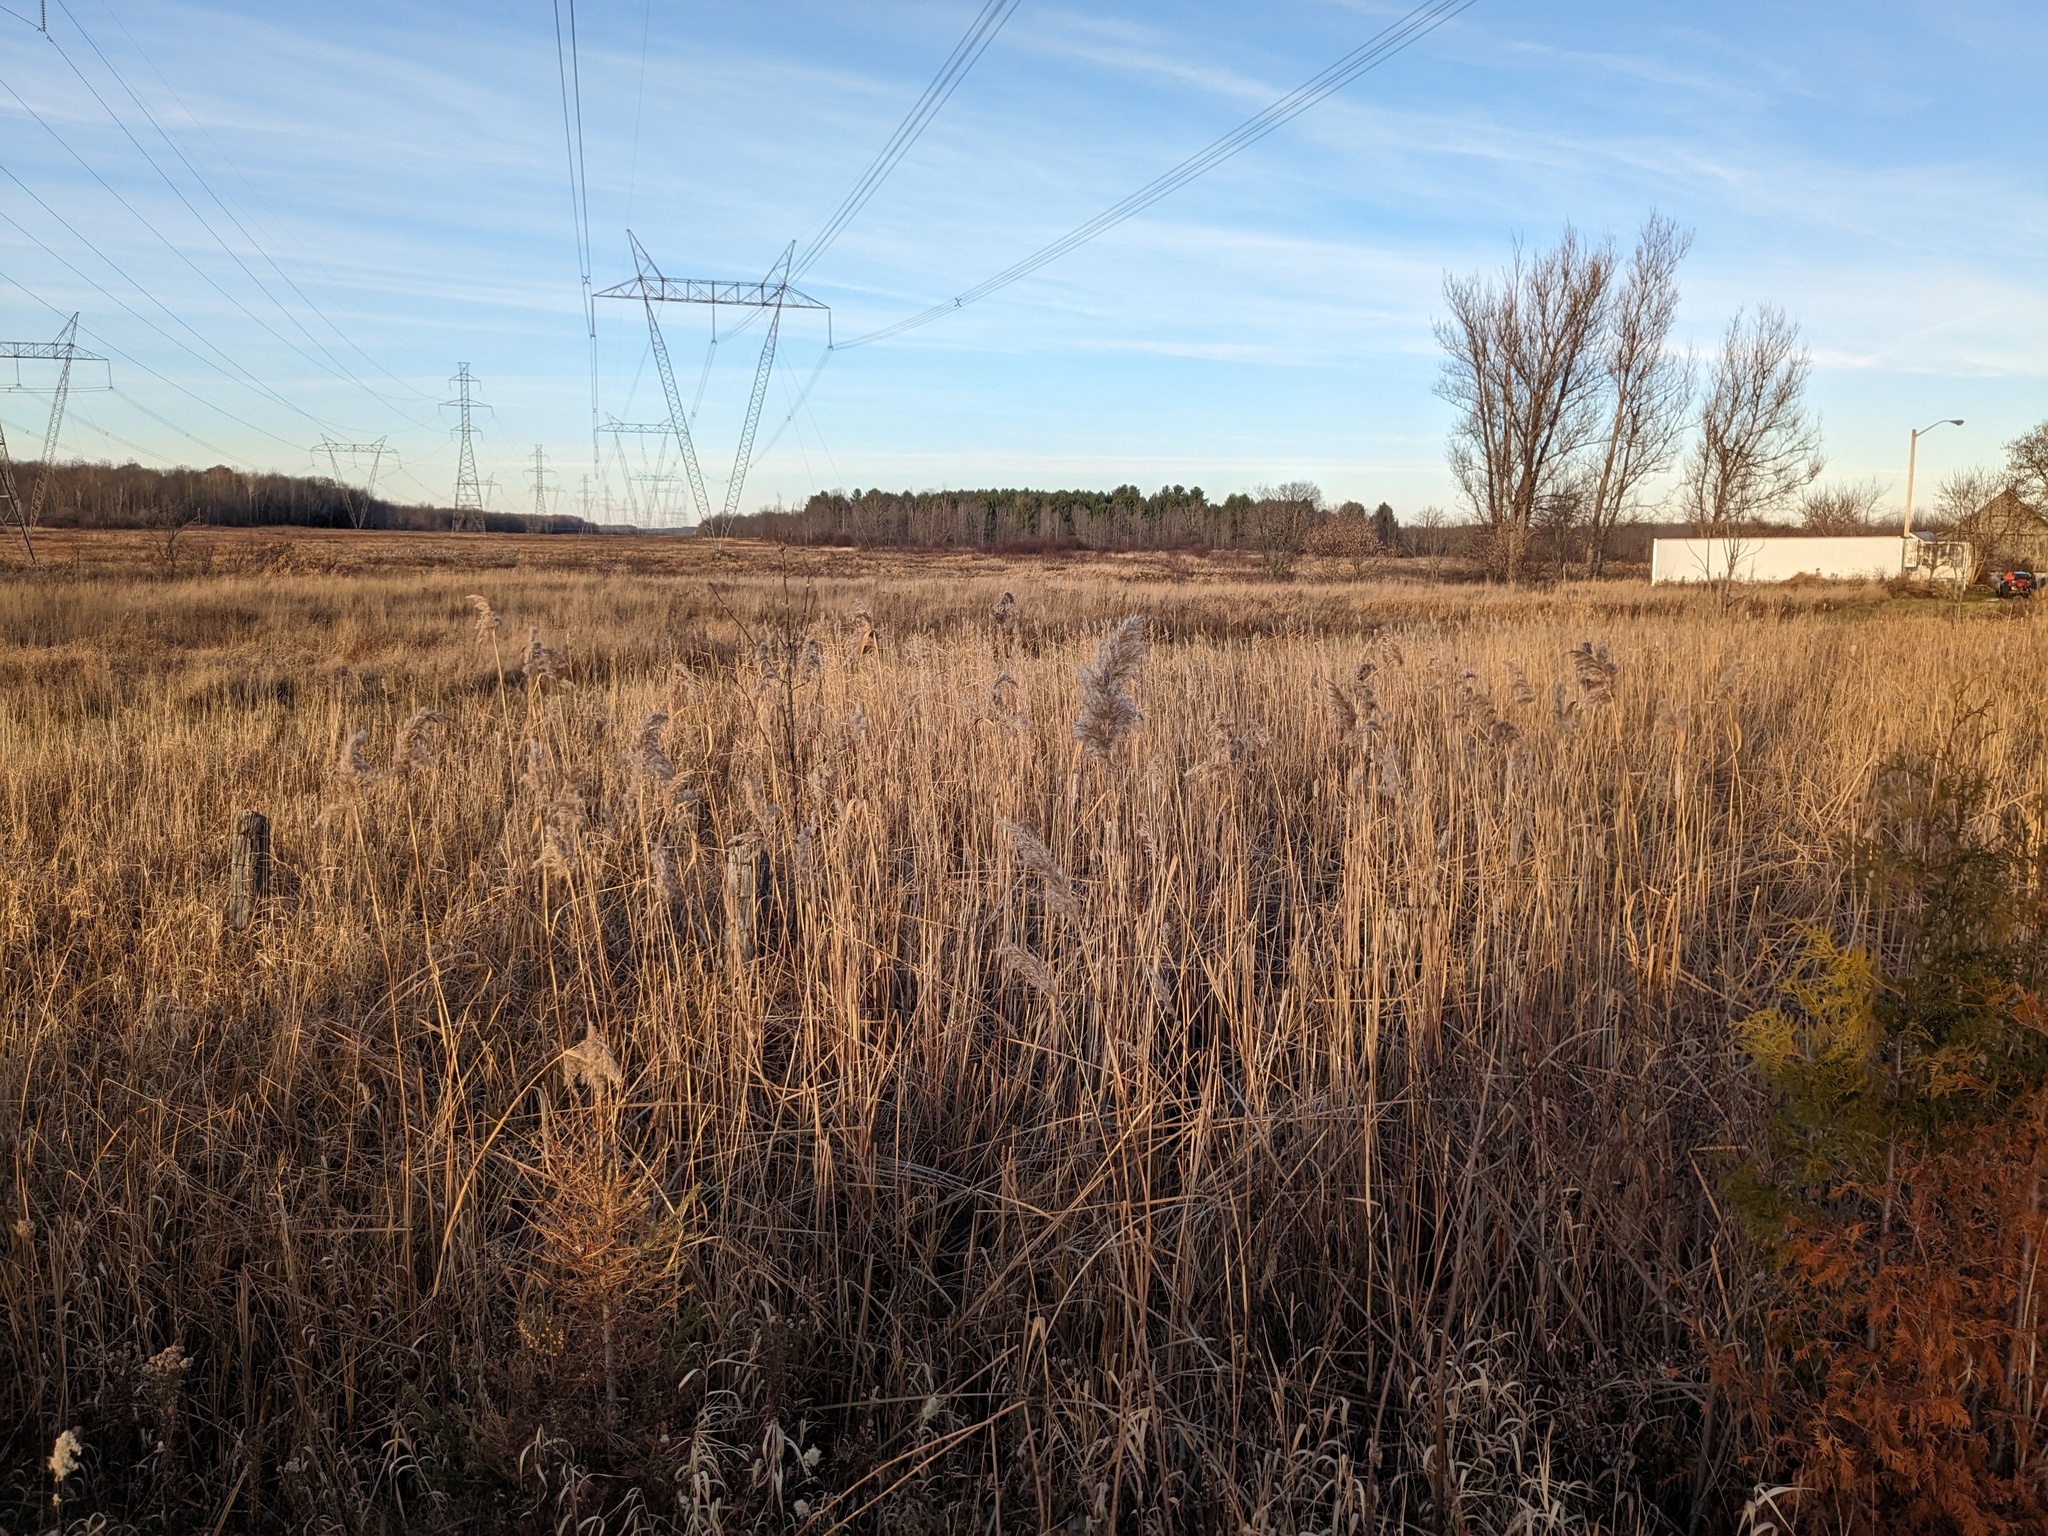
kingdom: Plantae
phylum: Tracheophyta
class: Liliopsida
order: Poales
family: Poaceae
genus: Phragmites
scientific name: Phragmites australis
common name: Common reed
